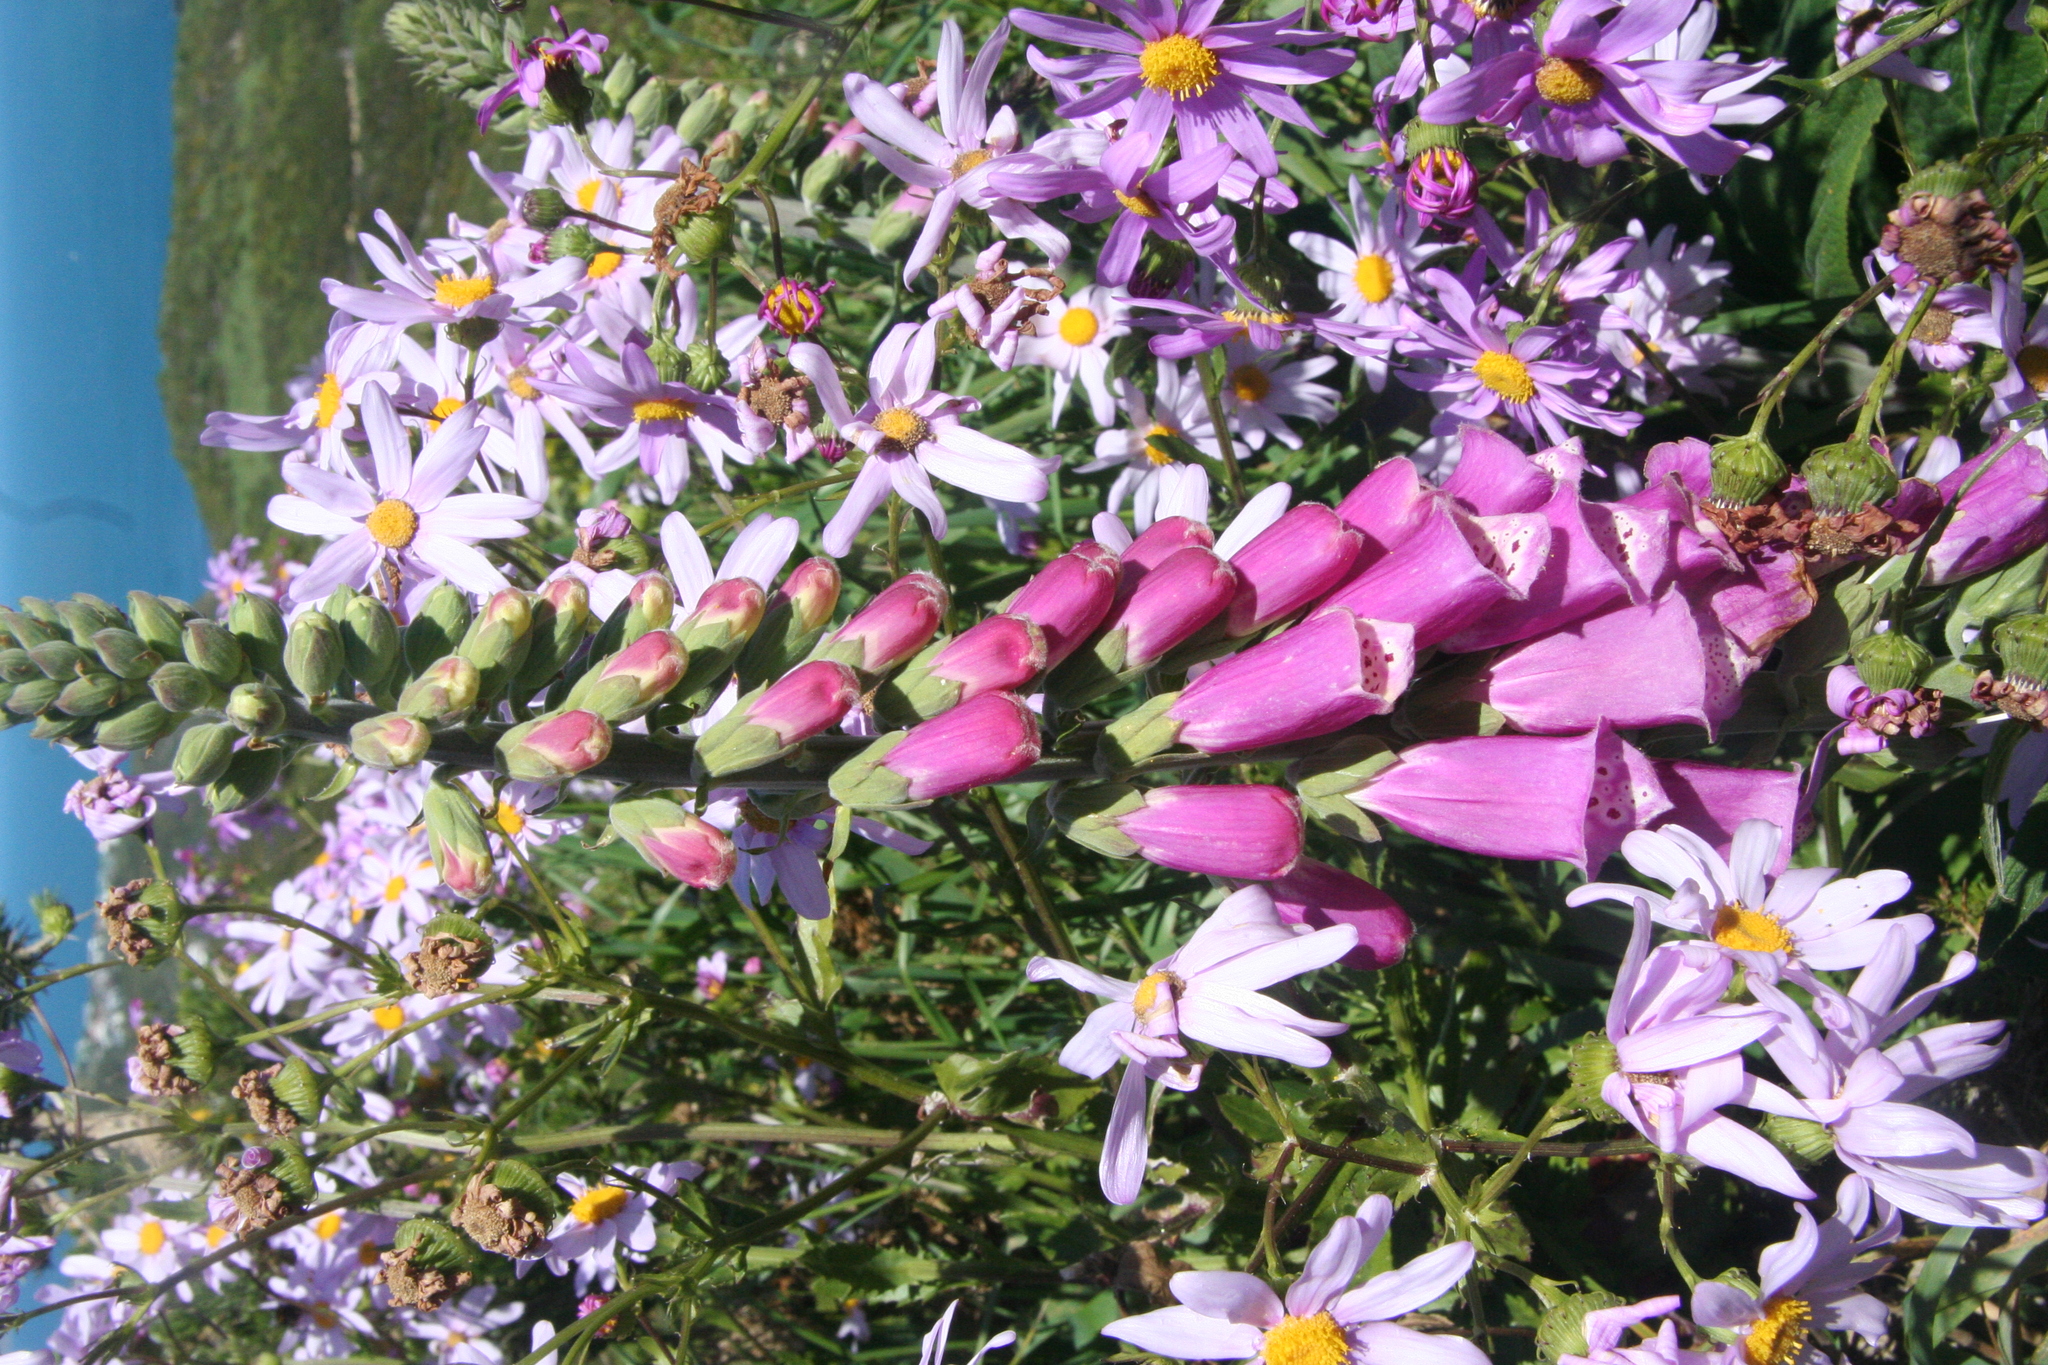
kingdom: Plantae
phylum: Tracheophyta
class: Magnoliopsida
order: Lamiales
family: Plantaginaceae
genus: Digitalis
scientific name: Digitalis purpurea
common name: Foxglove
